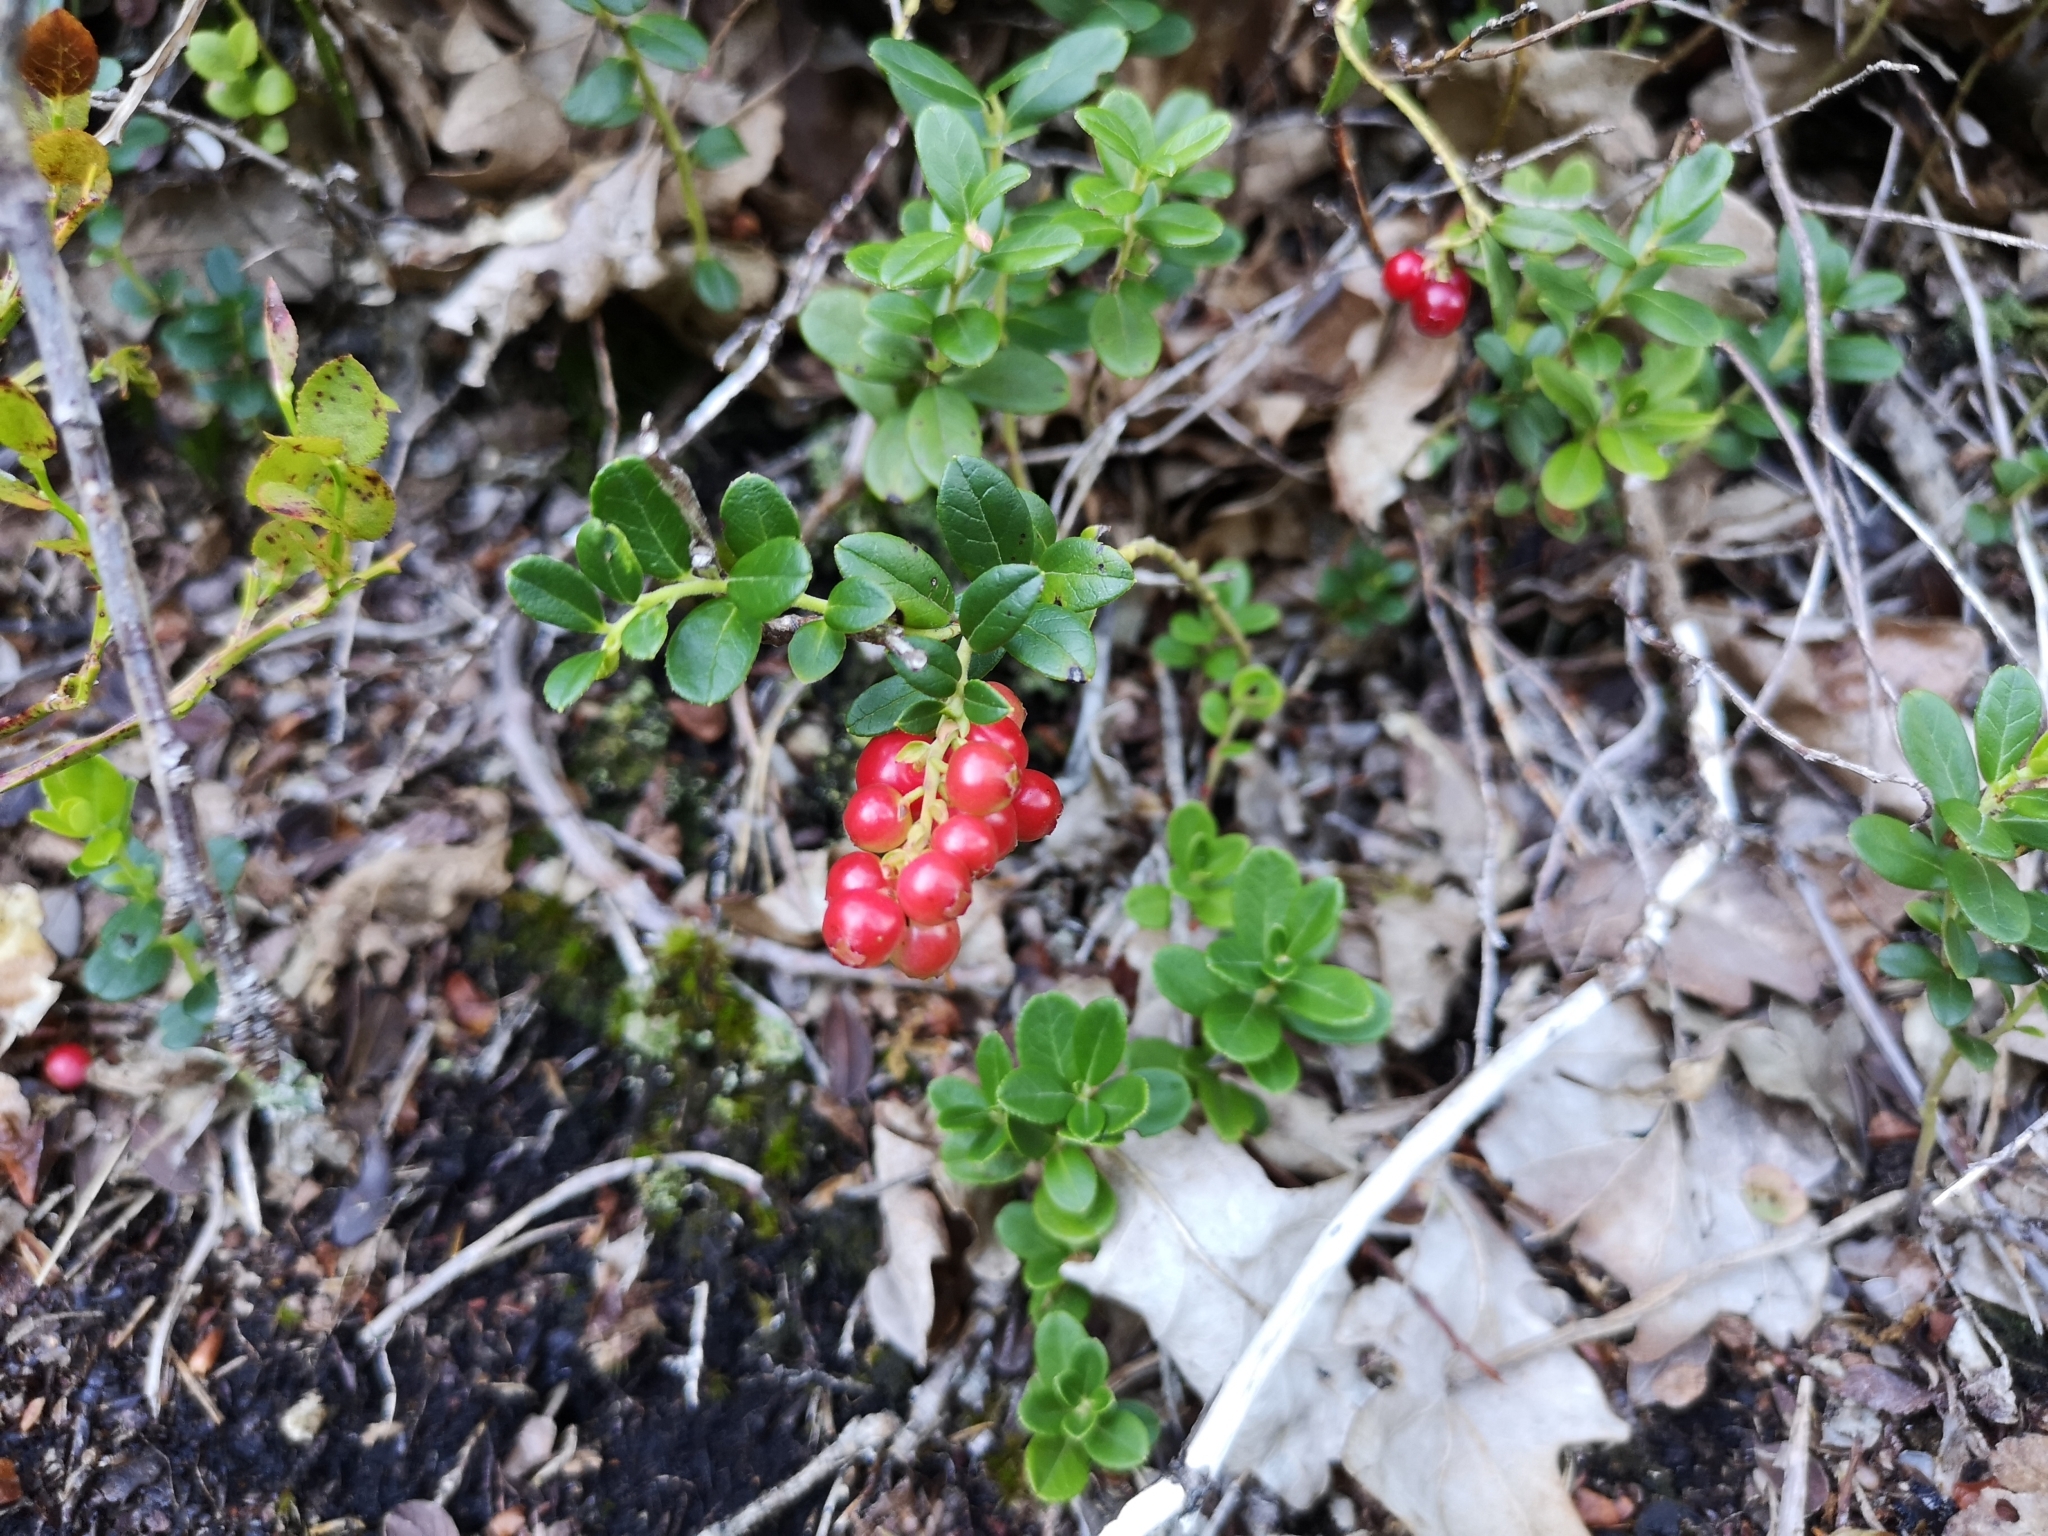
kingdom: Plantae
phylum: Tracheophyta
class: Magnoliopsida
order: Ericales
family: Ericaceae
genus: Vaccinium
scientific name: Vaccinium vitis-idaea
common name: Cowberry
